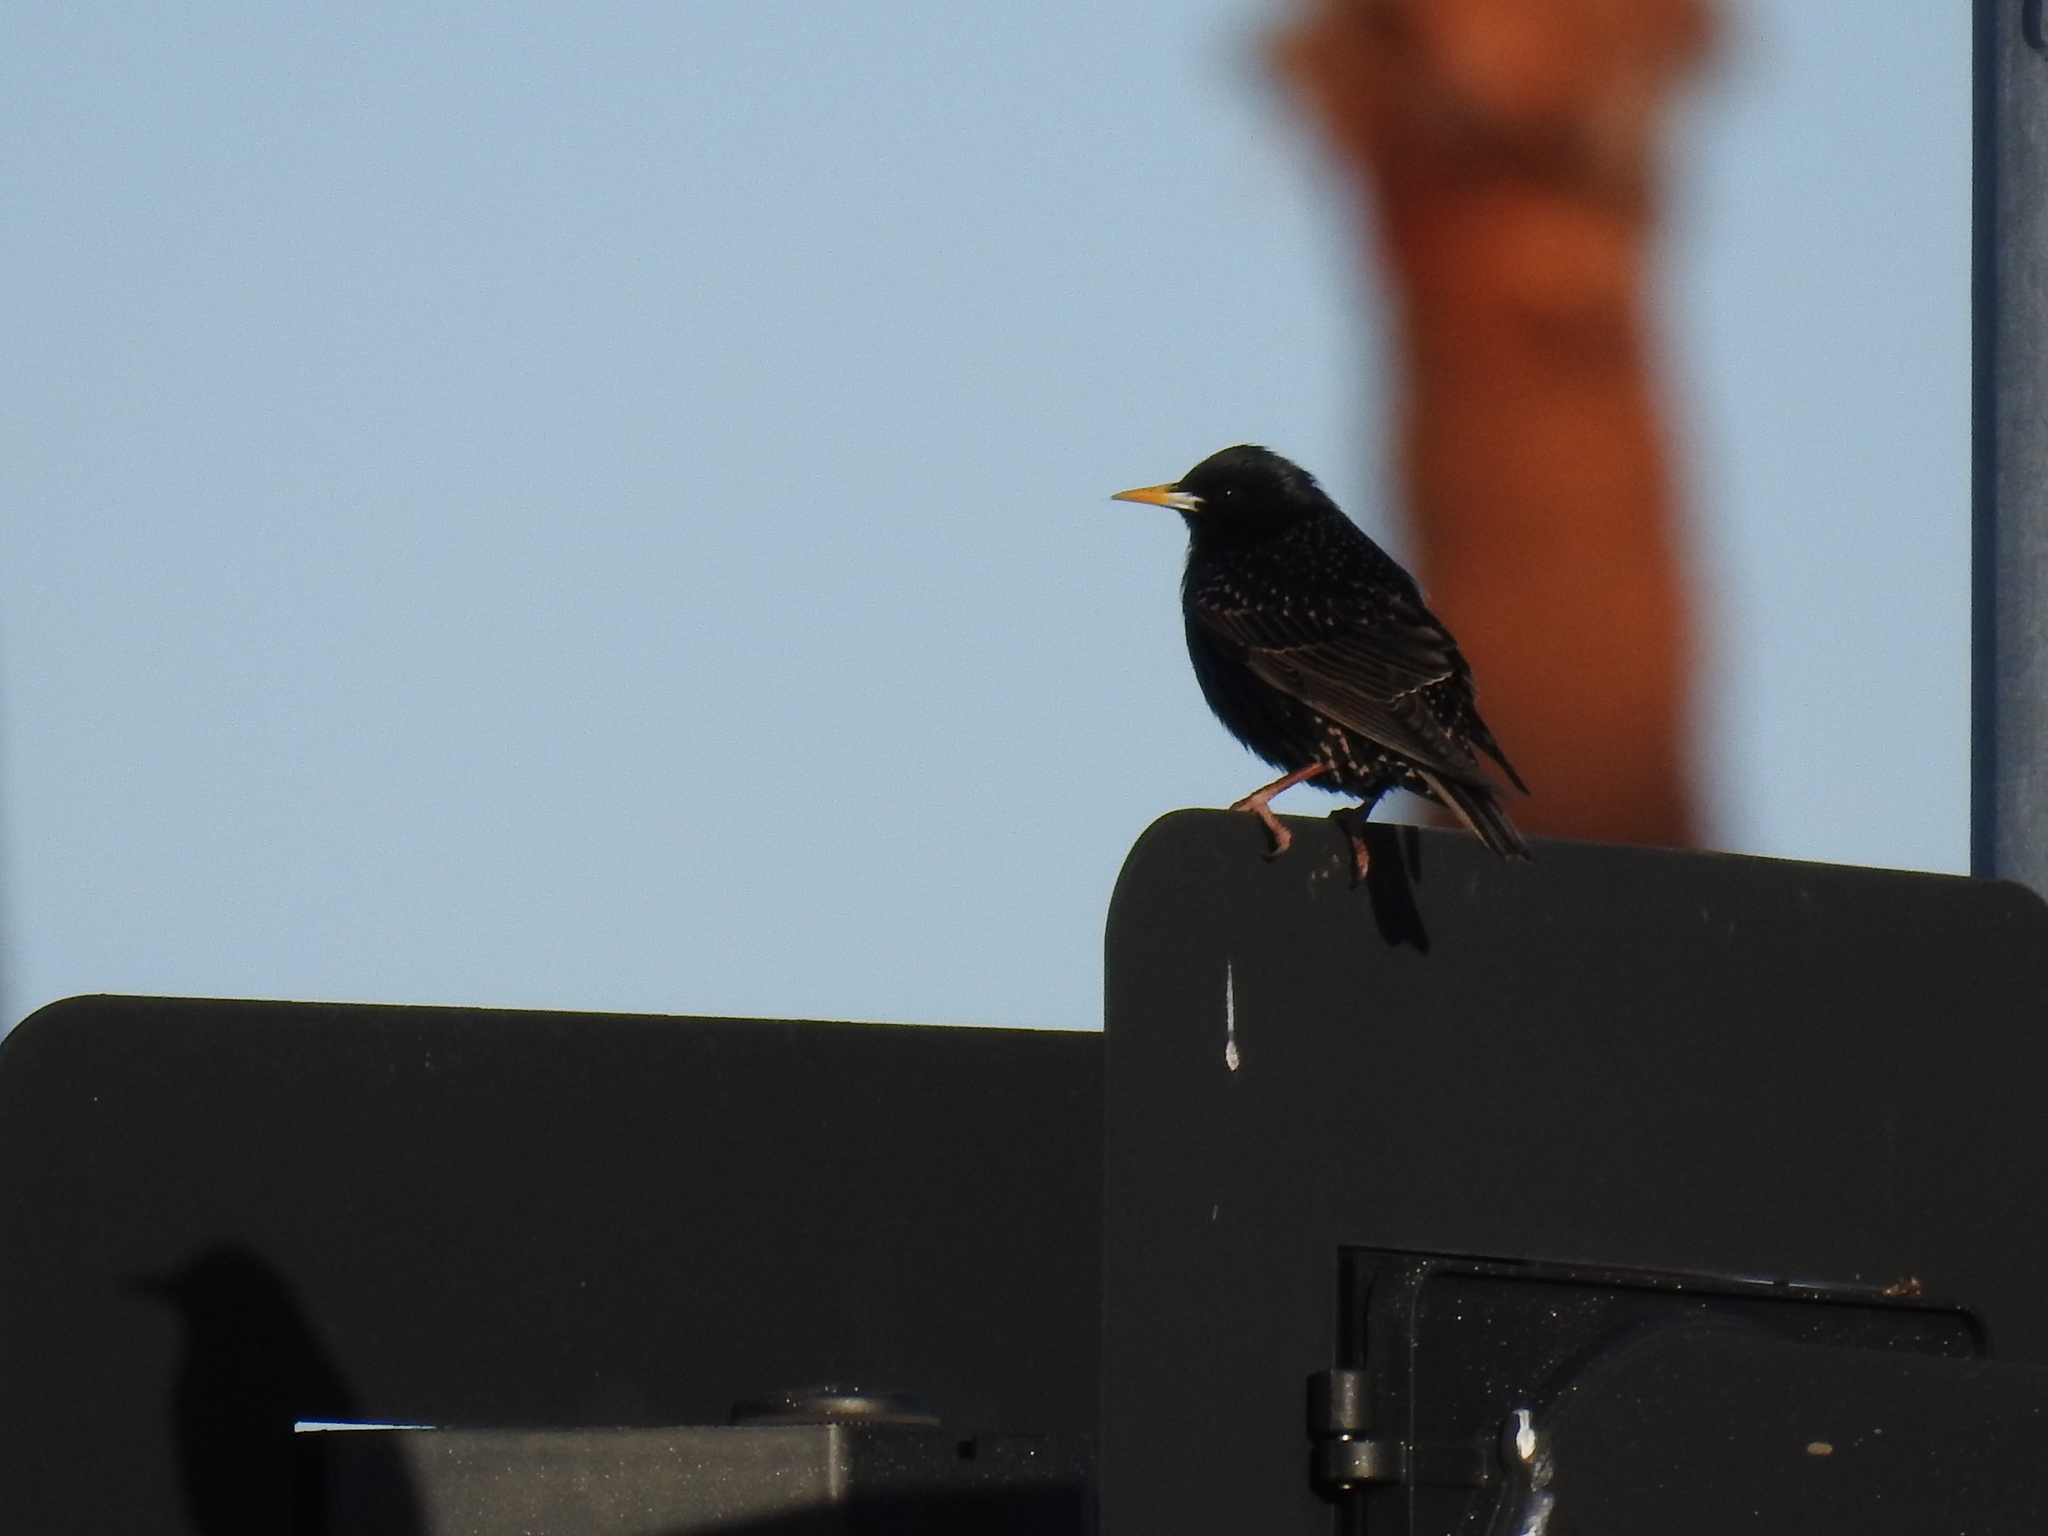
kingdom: Animalia
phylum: Chordata
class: Aves
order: Passeriformes
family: Sturnidae
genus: Sturnus
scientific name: Sturnus vulgaris
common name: Common starling
